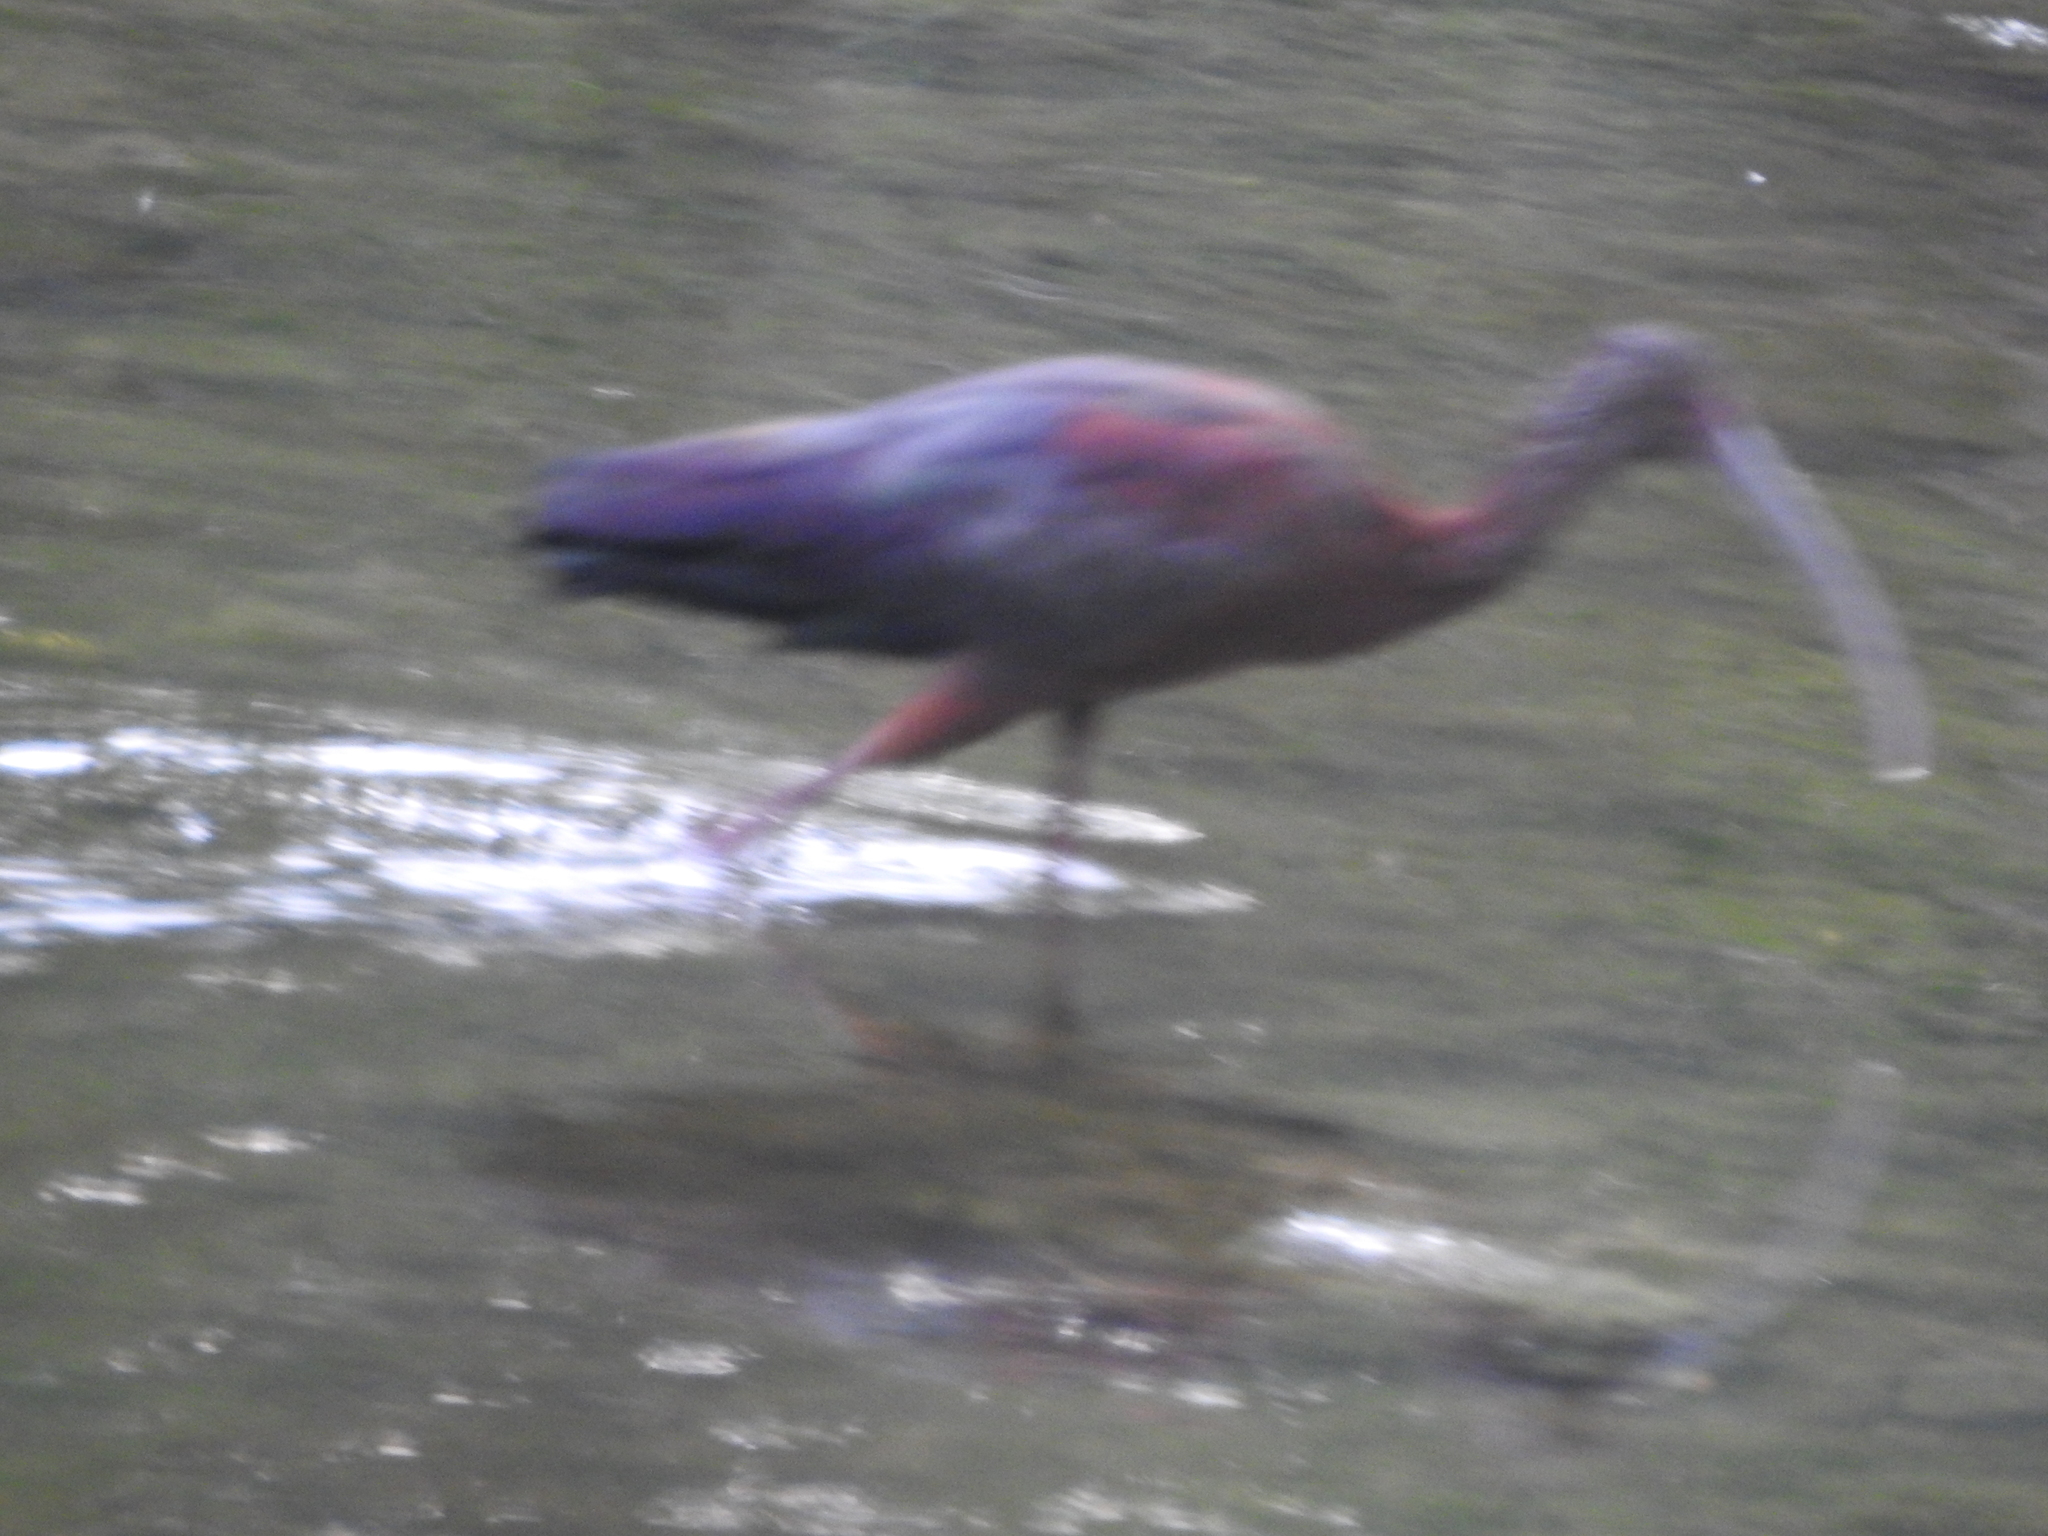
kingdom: Animalia
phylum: Chordata
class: Aves
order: Pelecaniformes
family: Threskiornithidae
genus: Plegadis
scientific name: Plegadis chihi
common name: White-faced ibis
